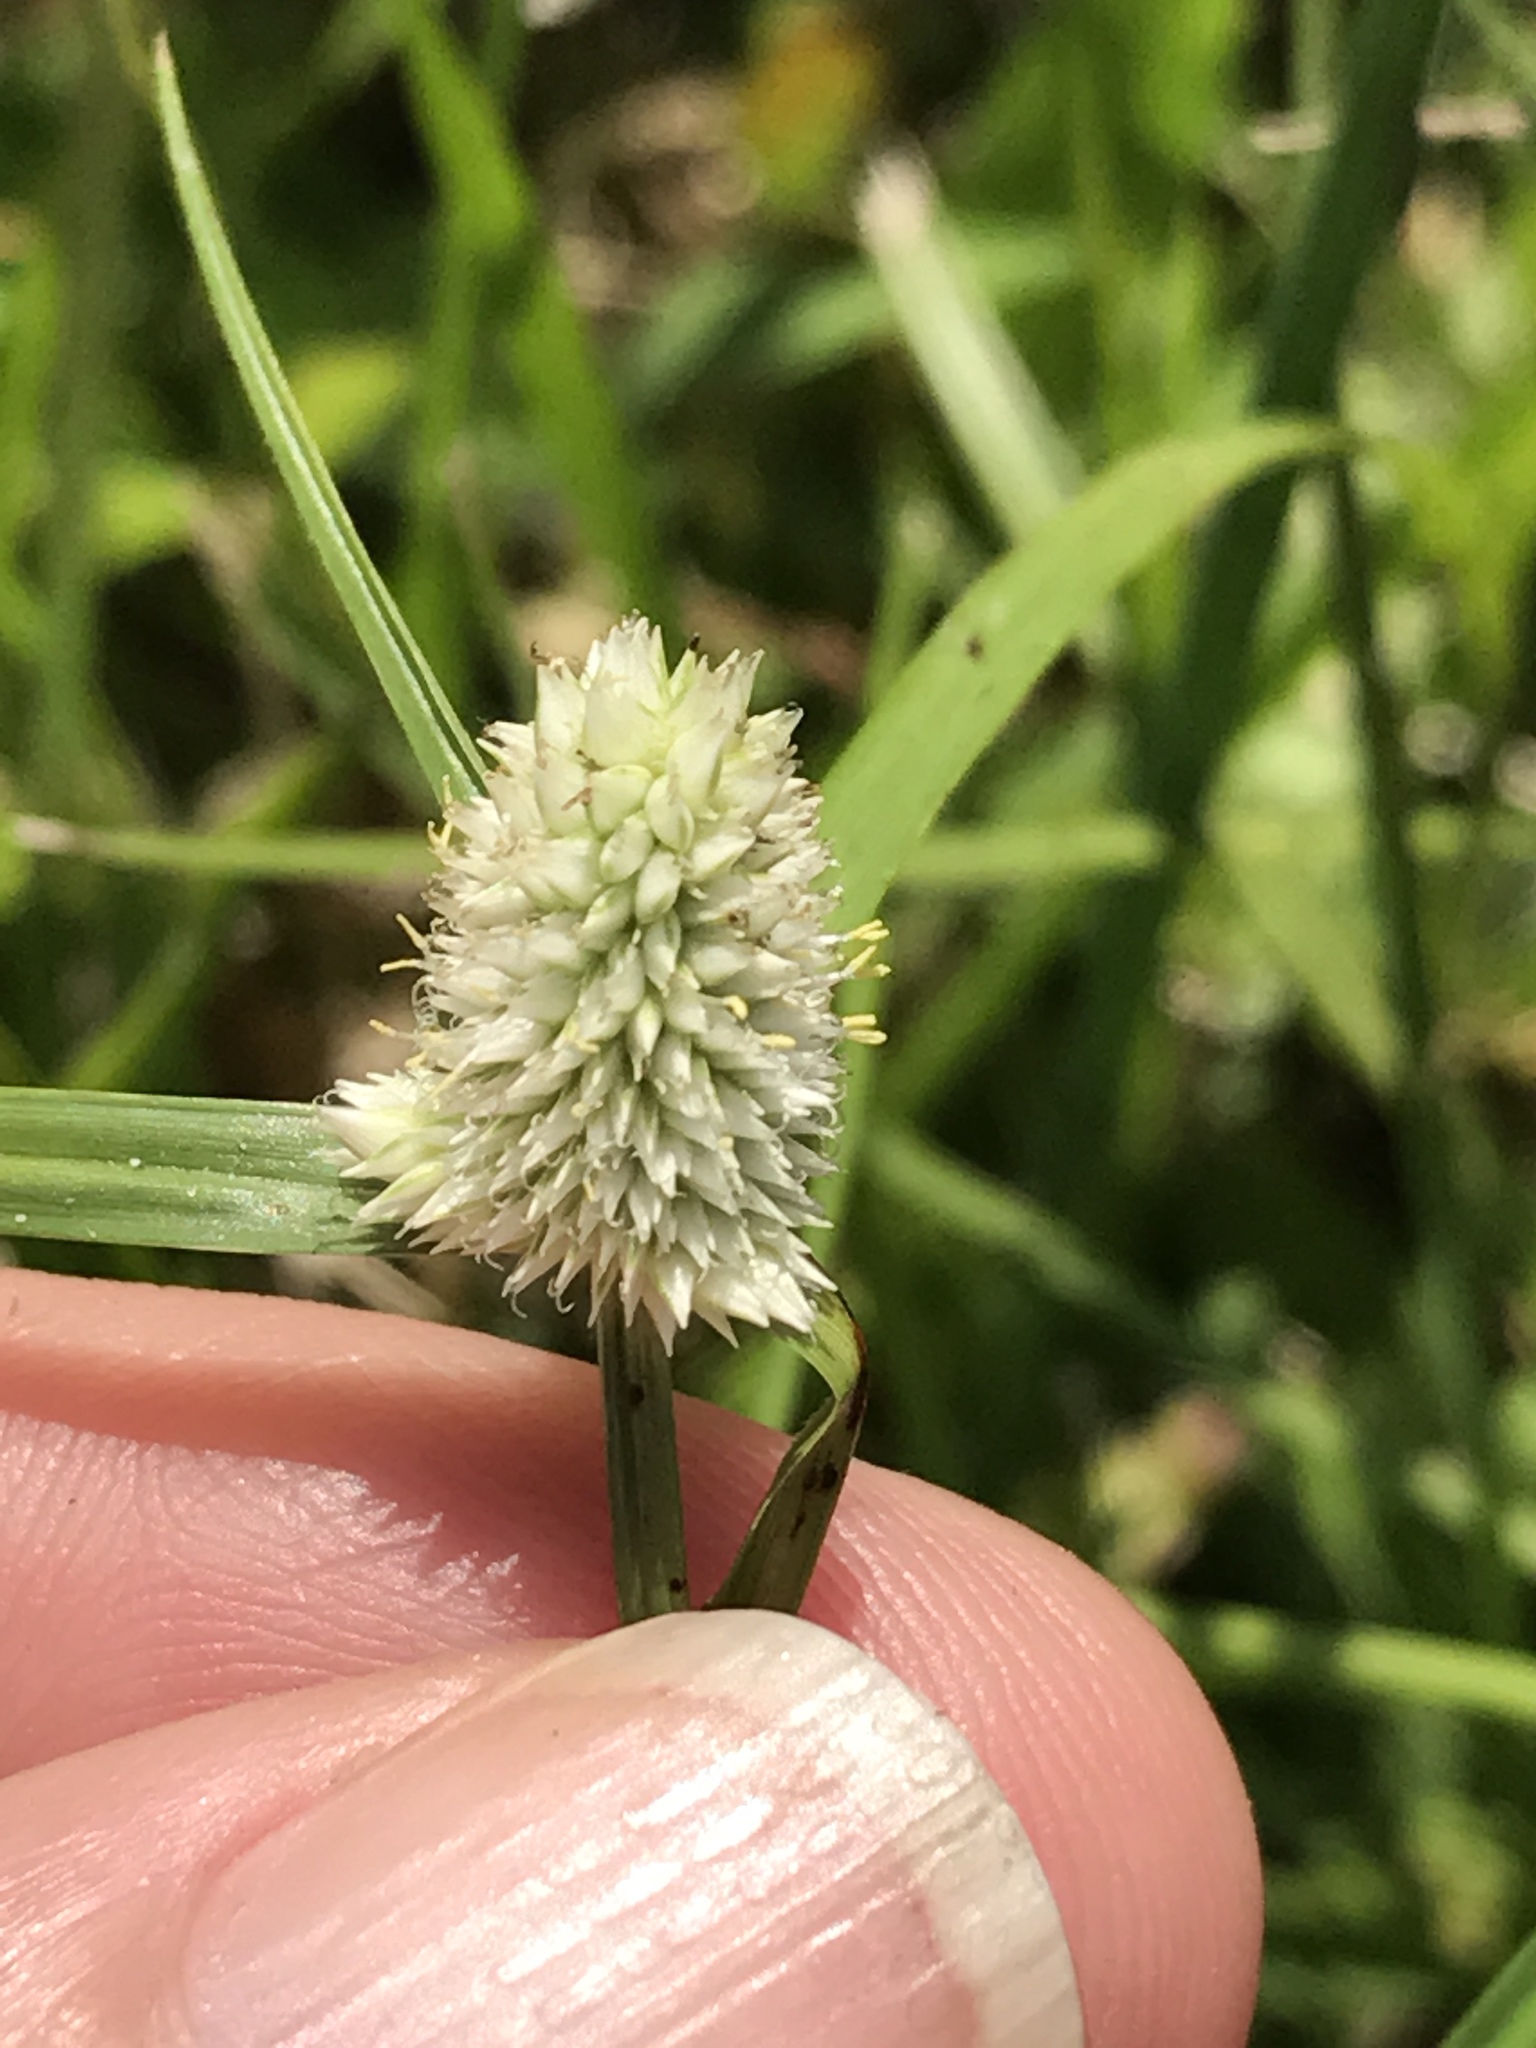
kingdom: Plantae
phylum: Tracheophyta
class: Liliopsida
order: Poales
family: Cyperaceae
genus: Cyperus
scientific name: Cyperus sesquiflorus
